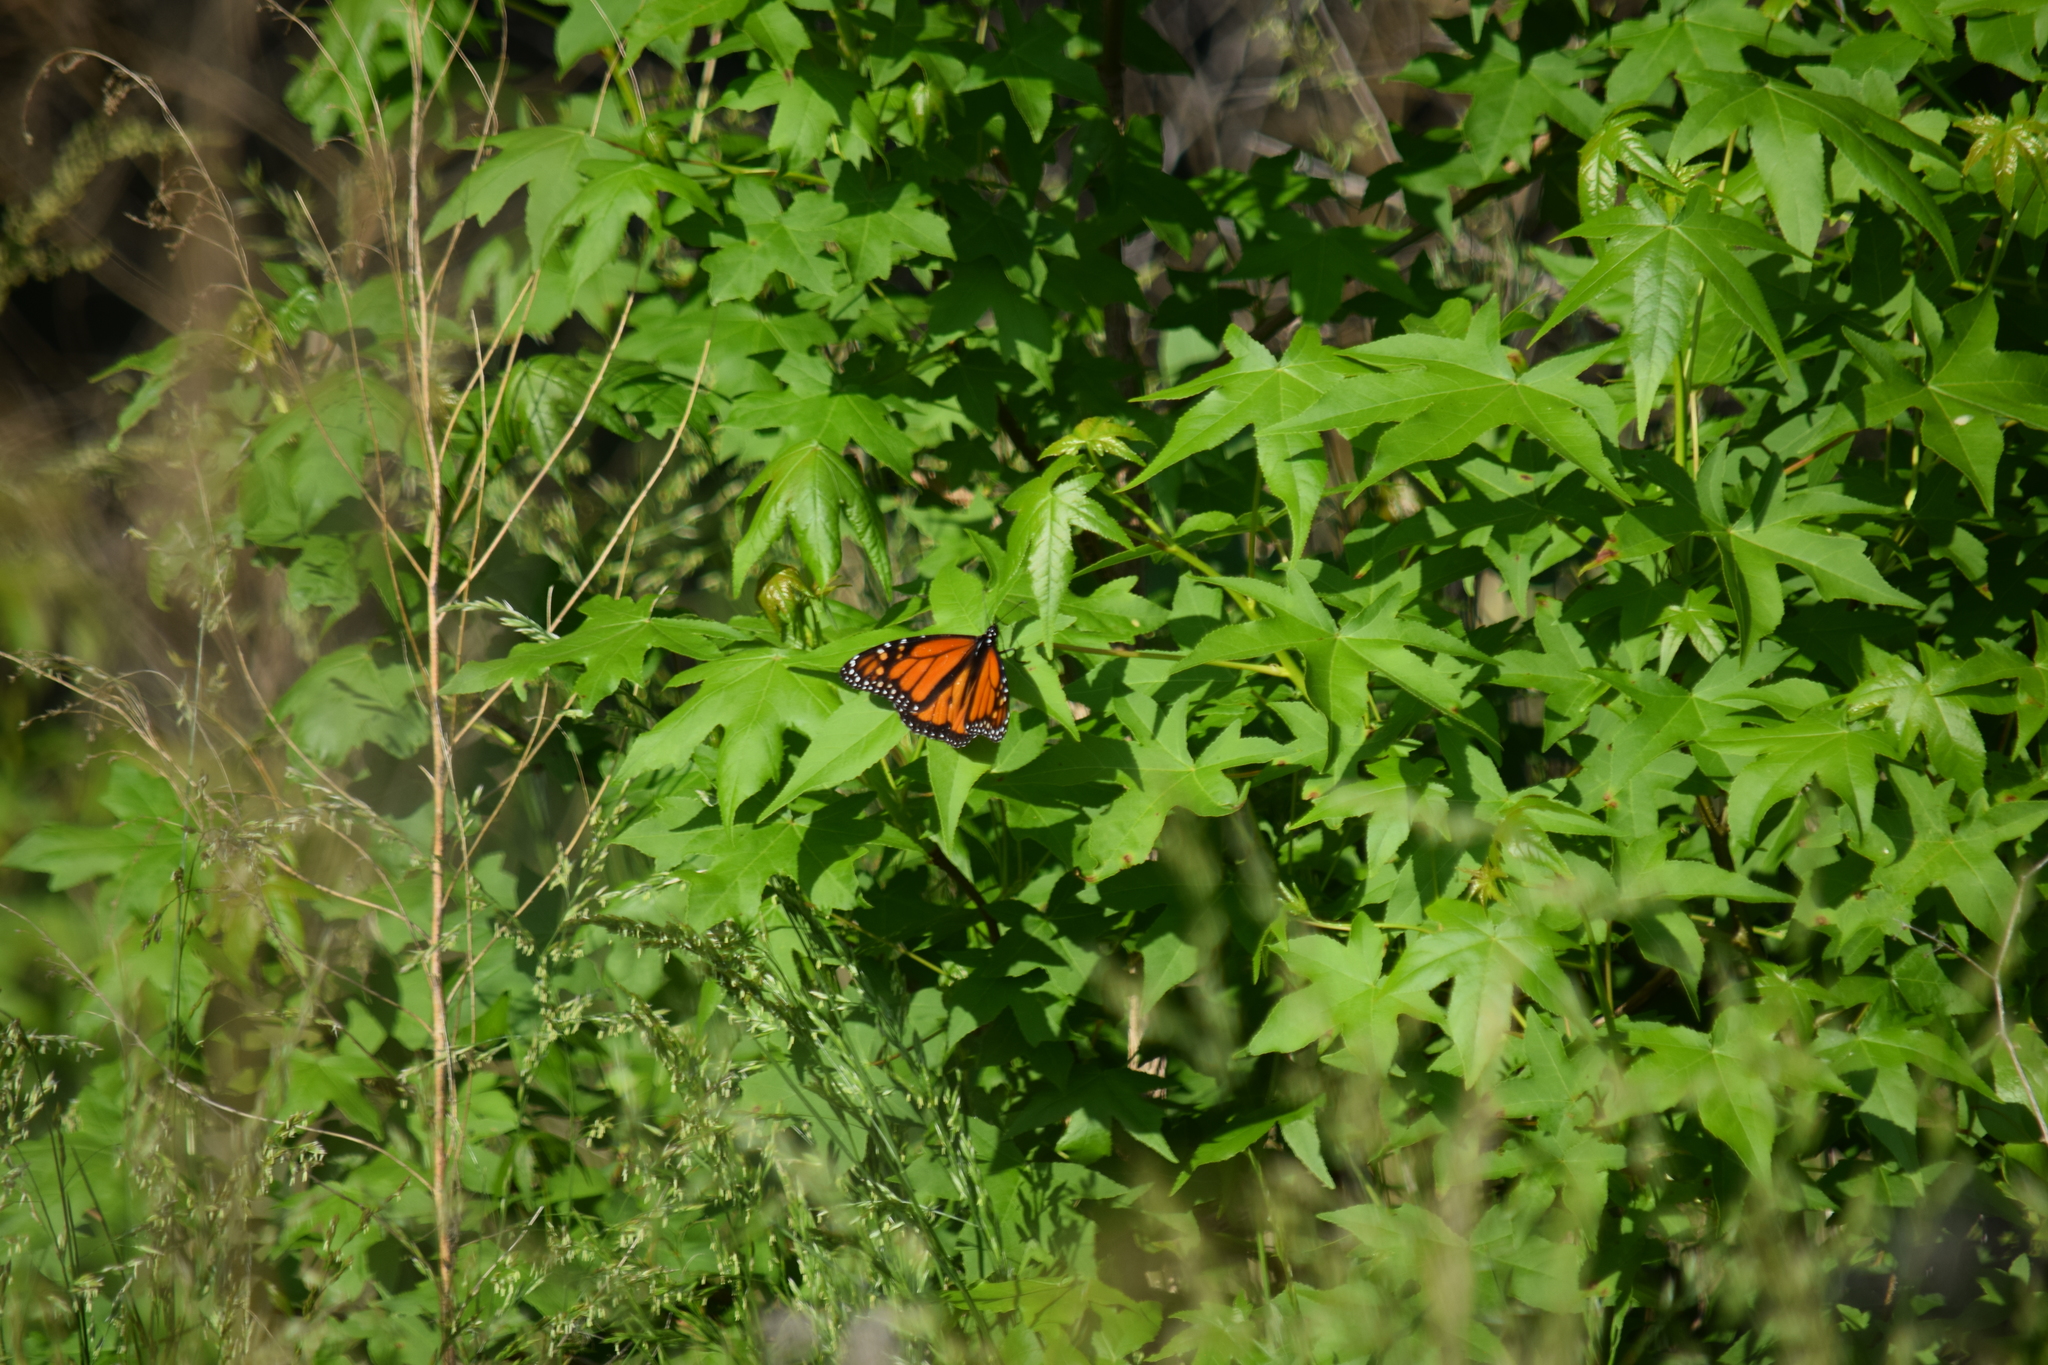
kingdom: Animalia
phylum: Arthropoda
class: Insecta
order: Lepidoptera
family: Nymphalidae
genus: Danaus
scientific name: Danaus plexippus
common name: Monarch
